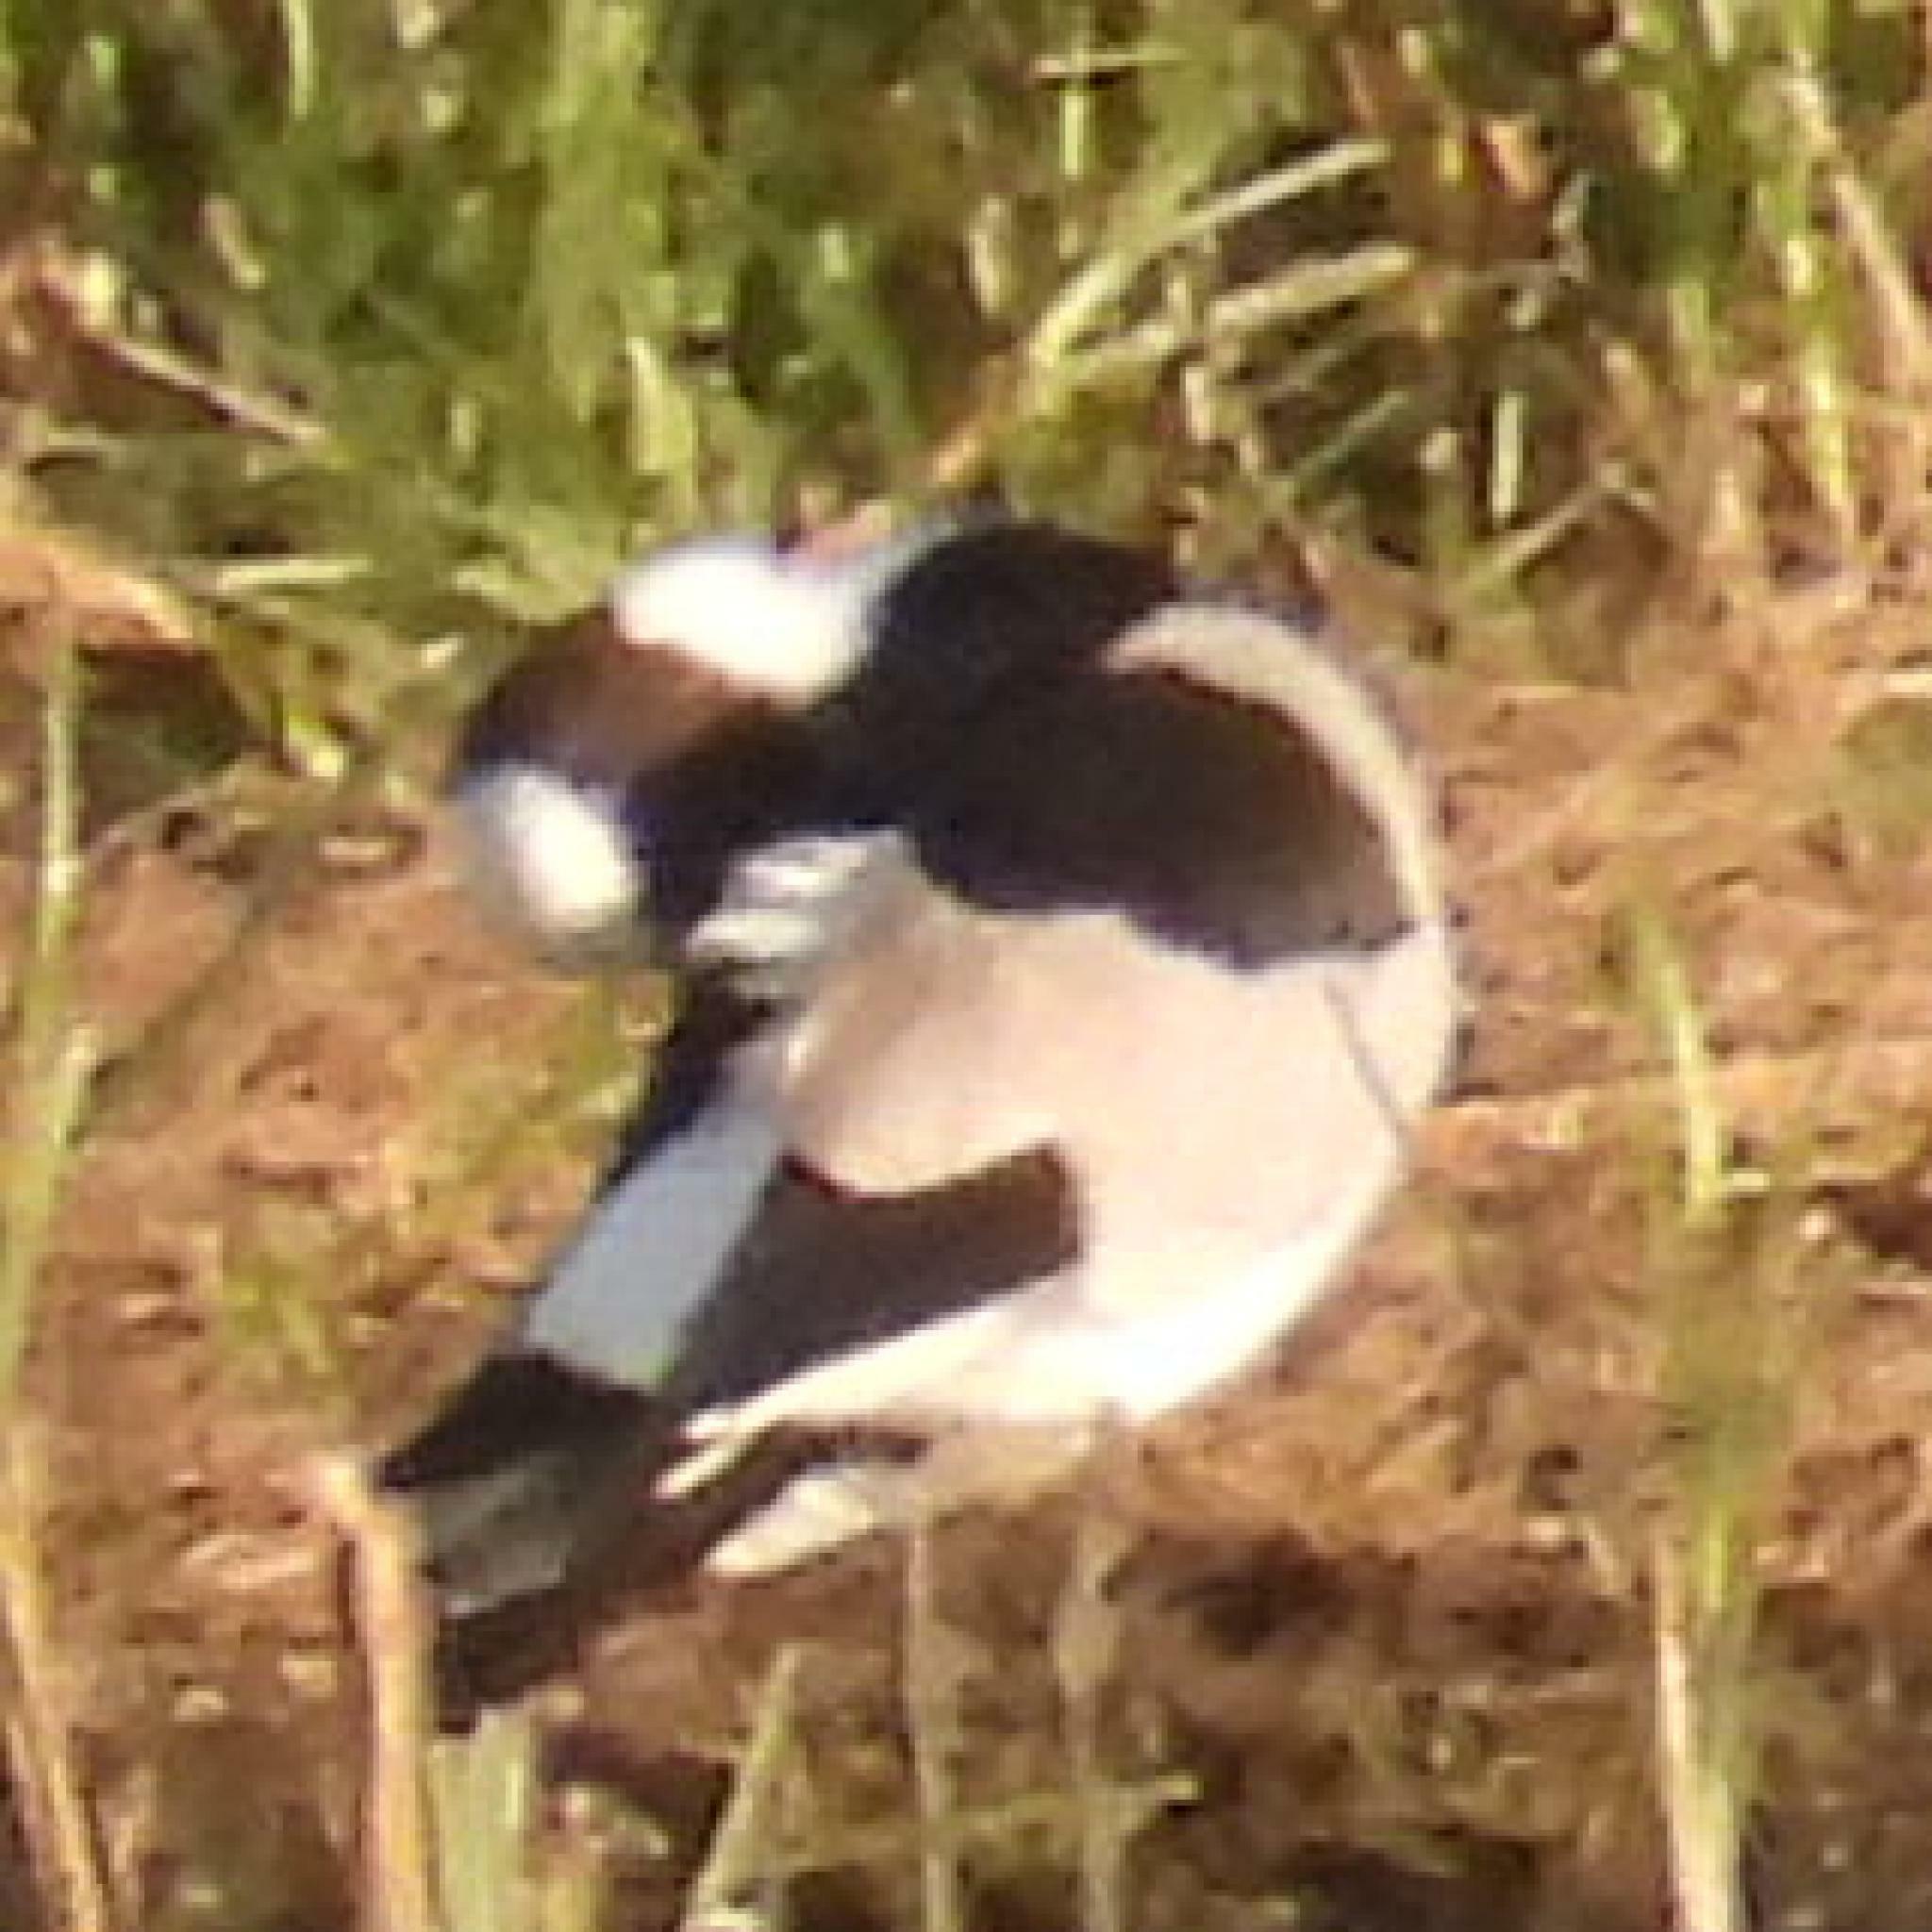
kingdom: Animalia
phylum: Chordata
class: Aves
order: Charadriiformes
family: Charadriidae
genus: Vanellus
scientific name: Vanellus armatus
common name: Blacksmith lapwing
